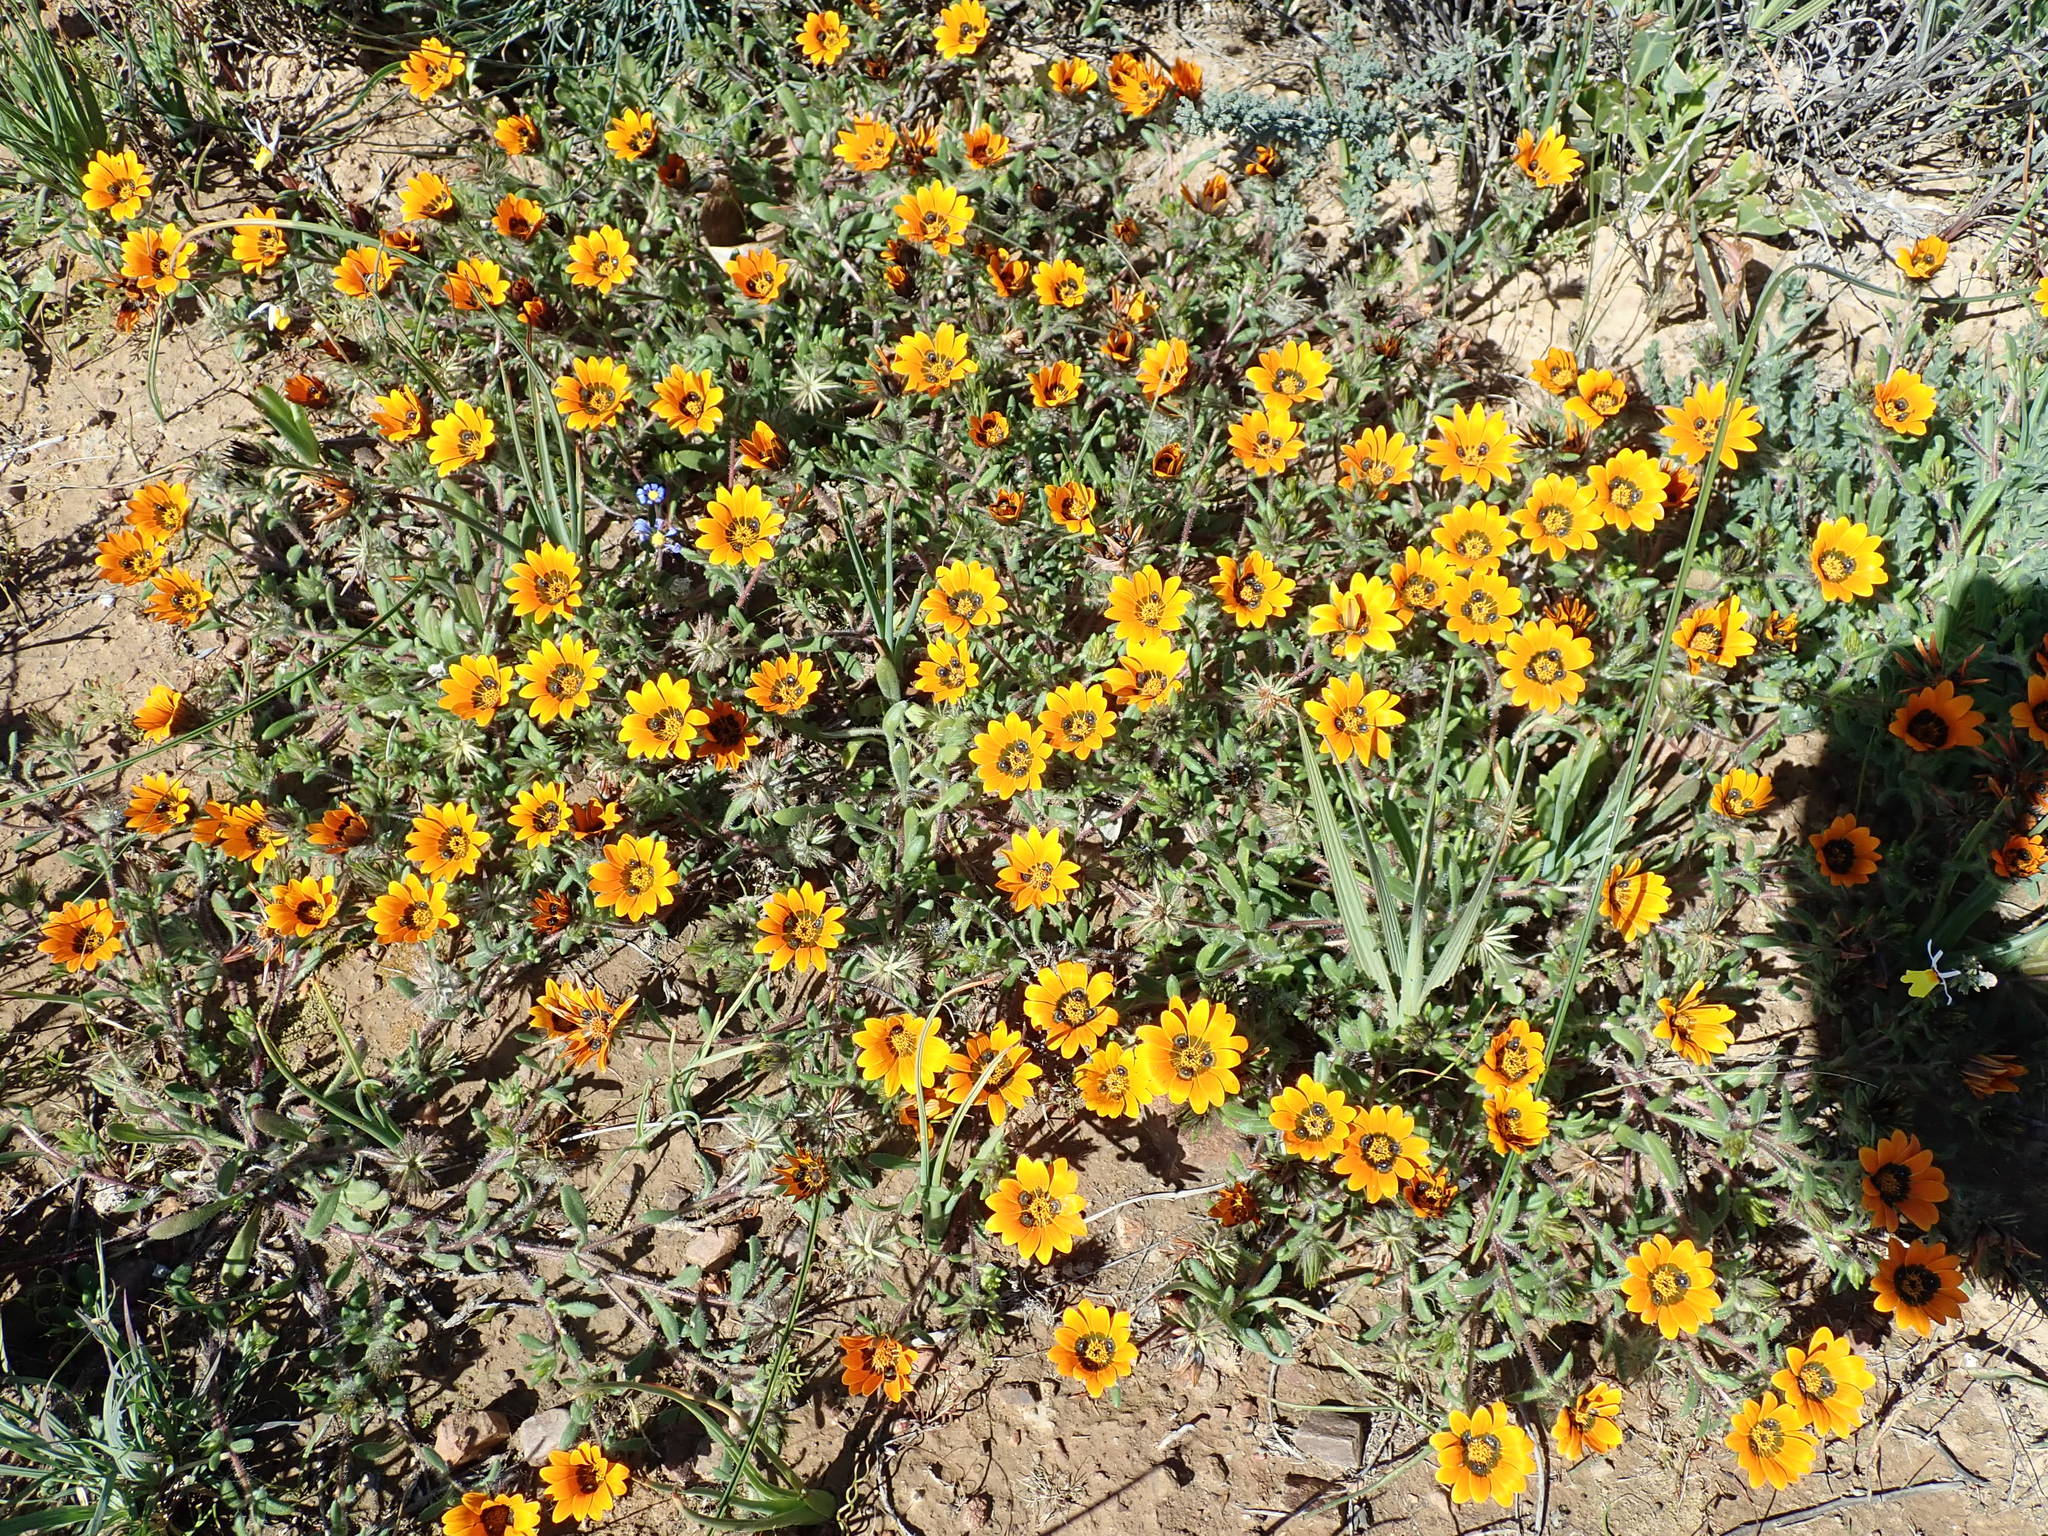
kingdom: Plantae
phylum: Tracheophyta
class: Magnoliopsida
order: Asterales
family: Asteraceae
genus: Gorteria
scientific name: Gorteria diffusa
